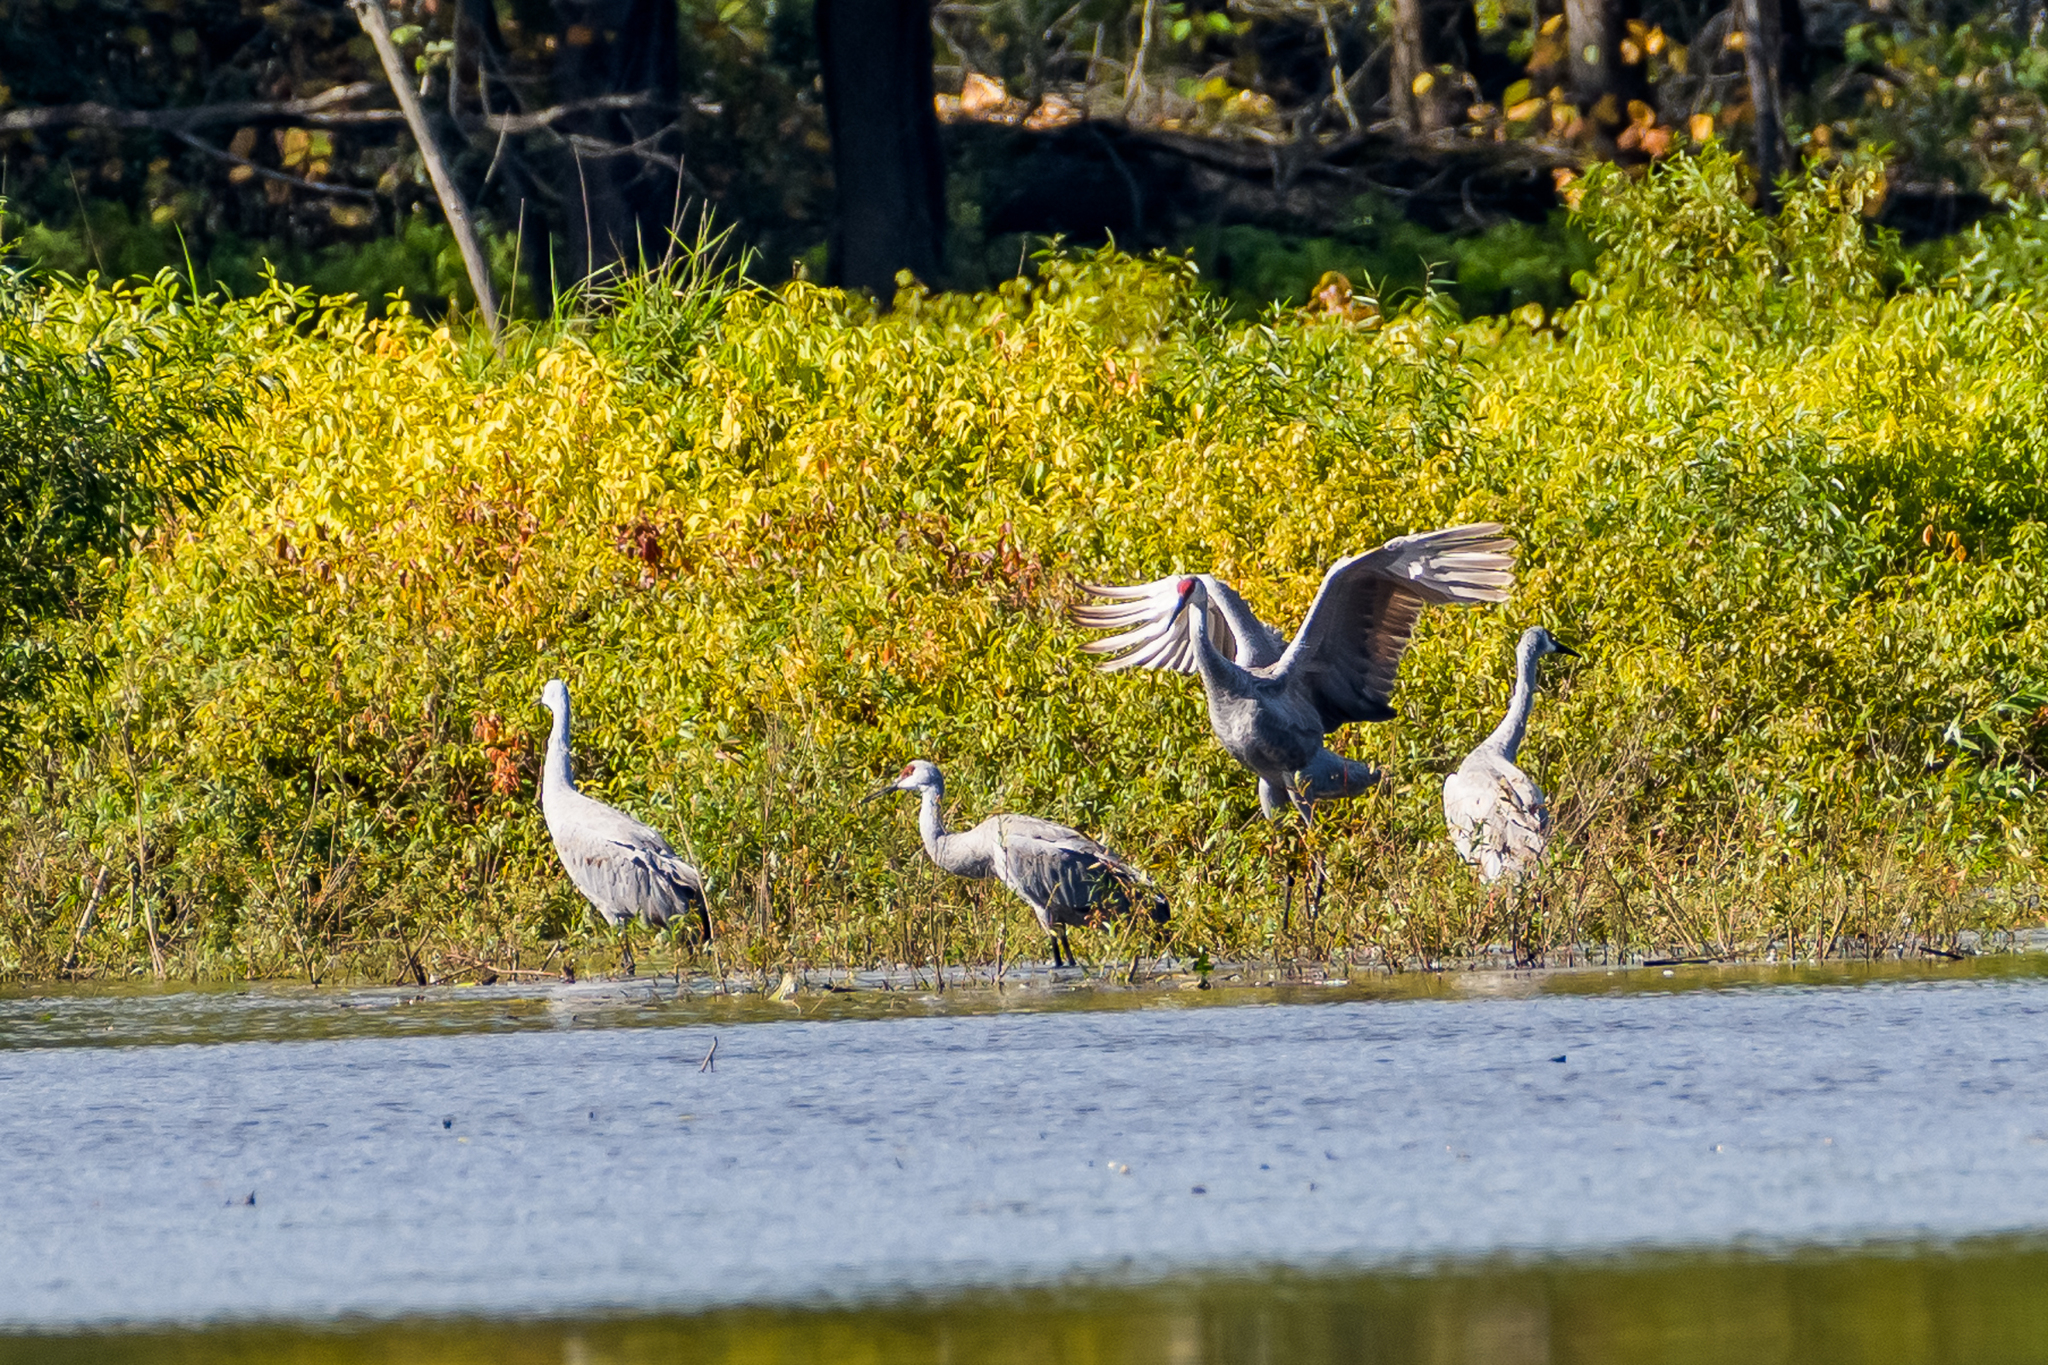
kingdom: Animalia
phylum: Chordata
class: Aves
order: Gruiformes
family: Gruidae
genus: Grus
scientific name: Grus canadensis
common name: Sandhill crane
